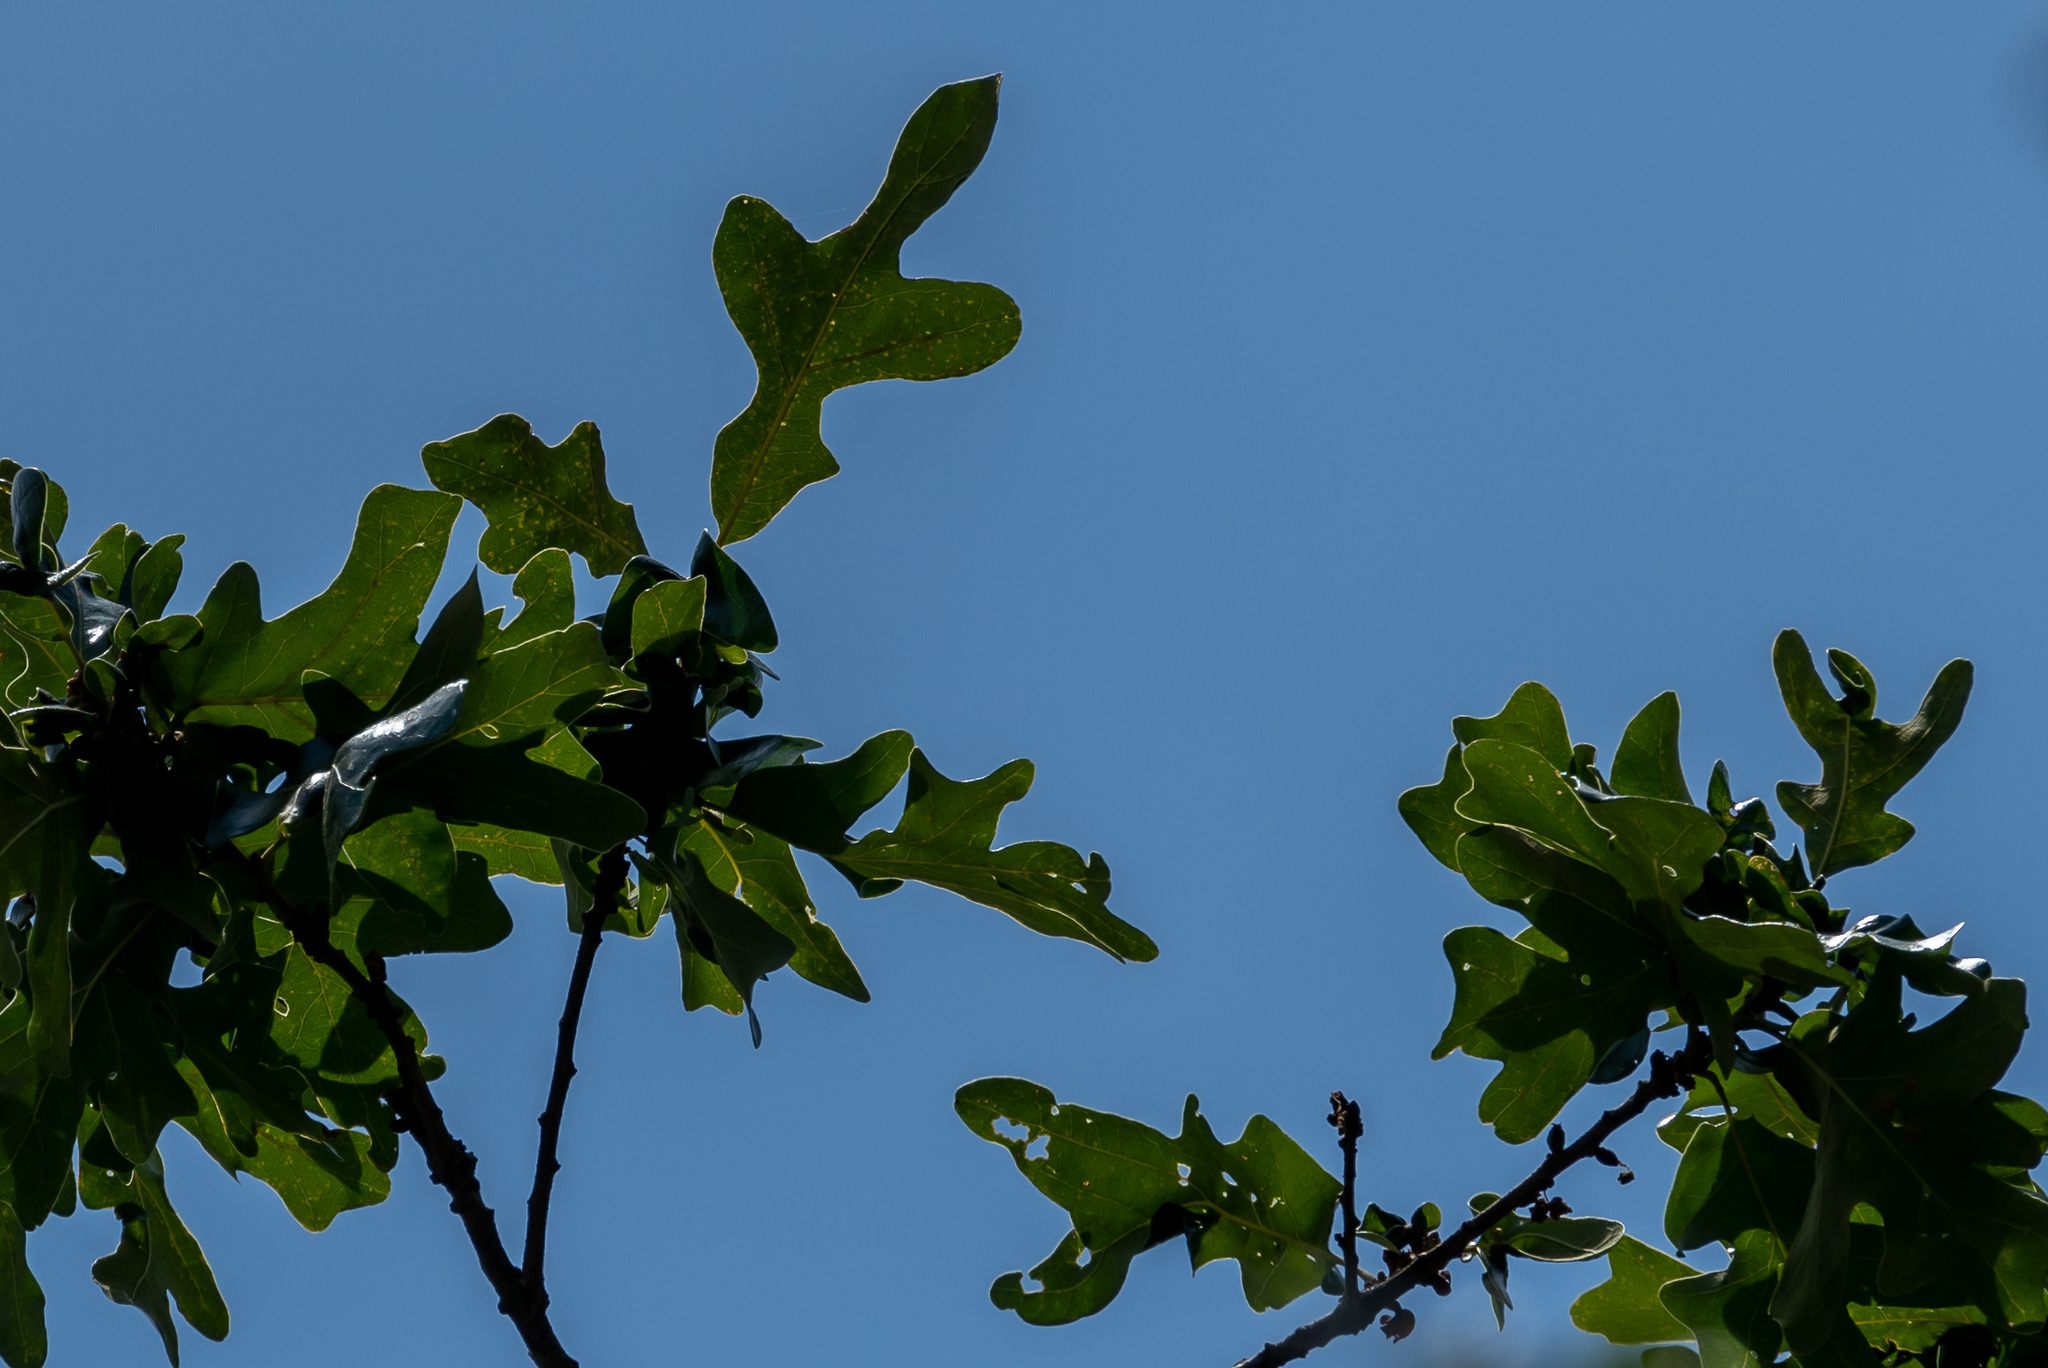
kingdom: Plantae
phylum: Tracheophyta
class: Magnoliopsida
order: Fagales
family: Fagaceae
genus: Quercus
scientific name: Quercus stellata
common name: Post oak
